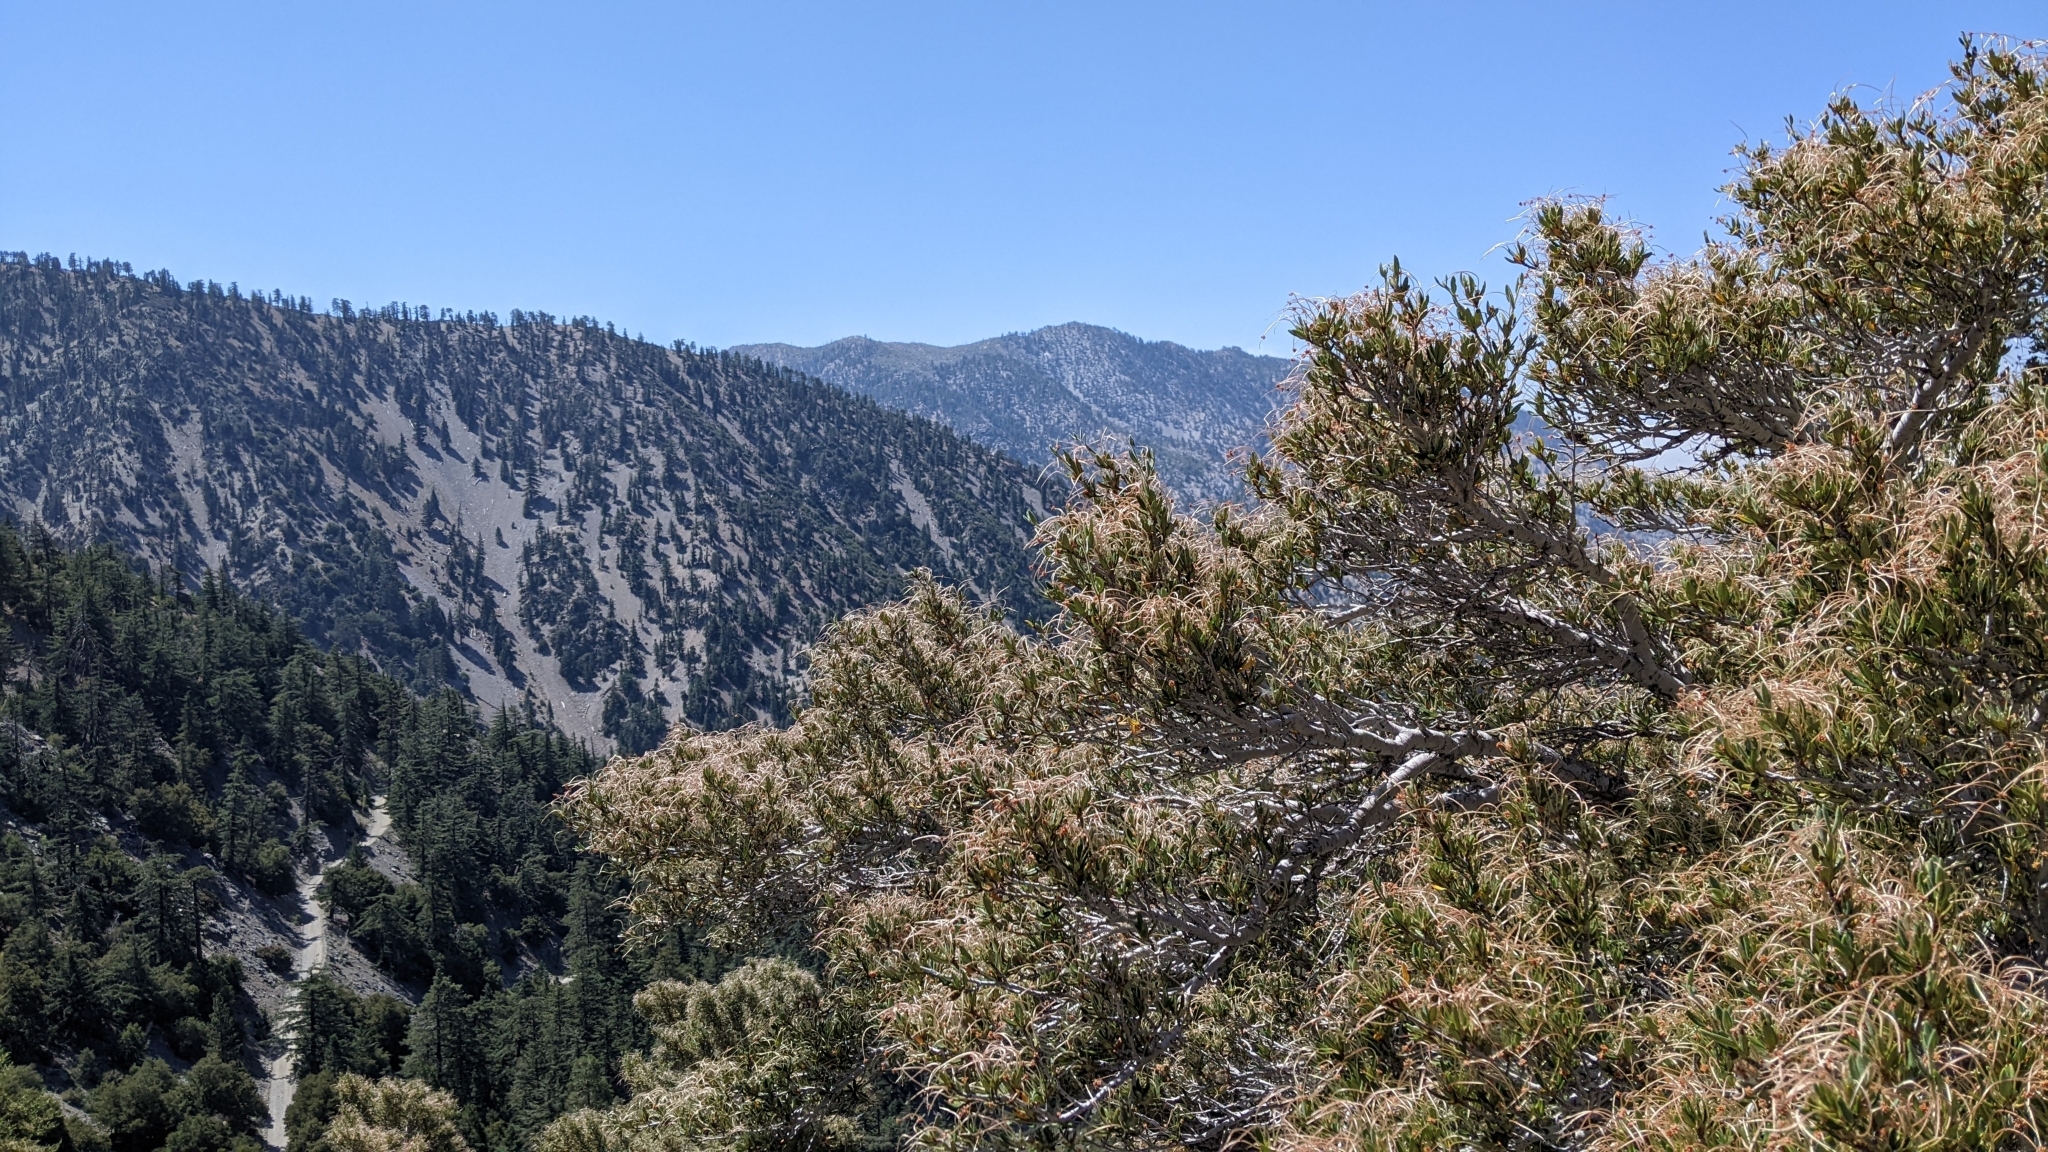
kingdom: Plantae
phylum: Tracheophyta
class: Magnoliopsida
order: Rosales
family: Rosaceae
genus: Cercocarpus
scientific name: Cercocarpus ledifolius
